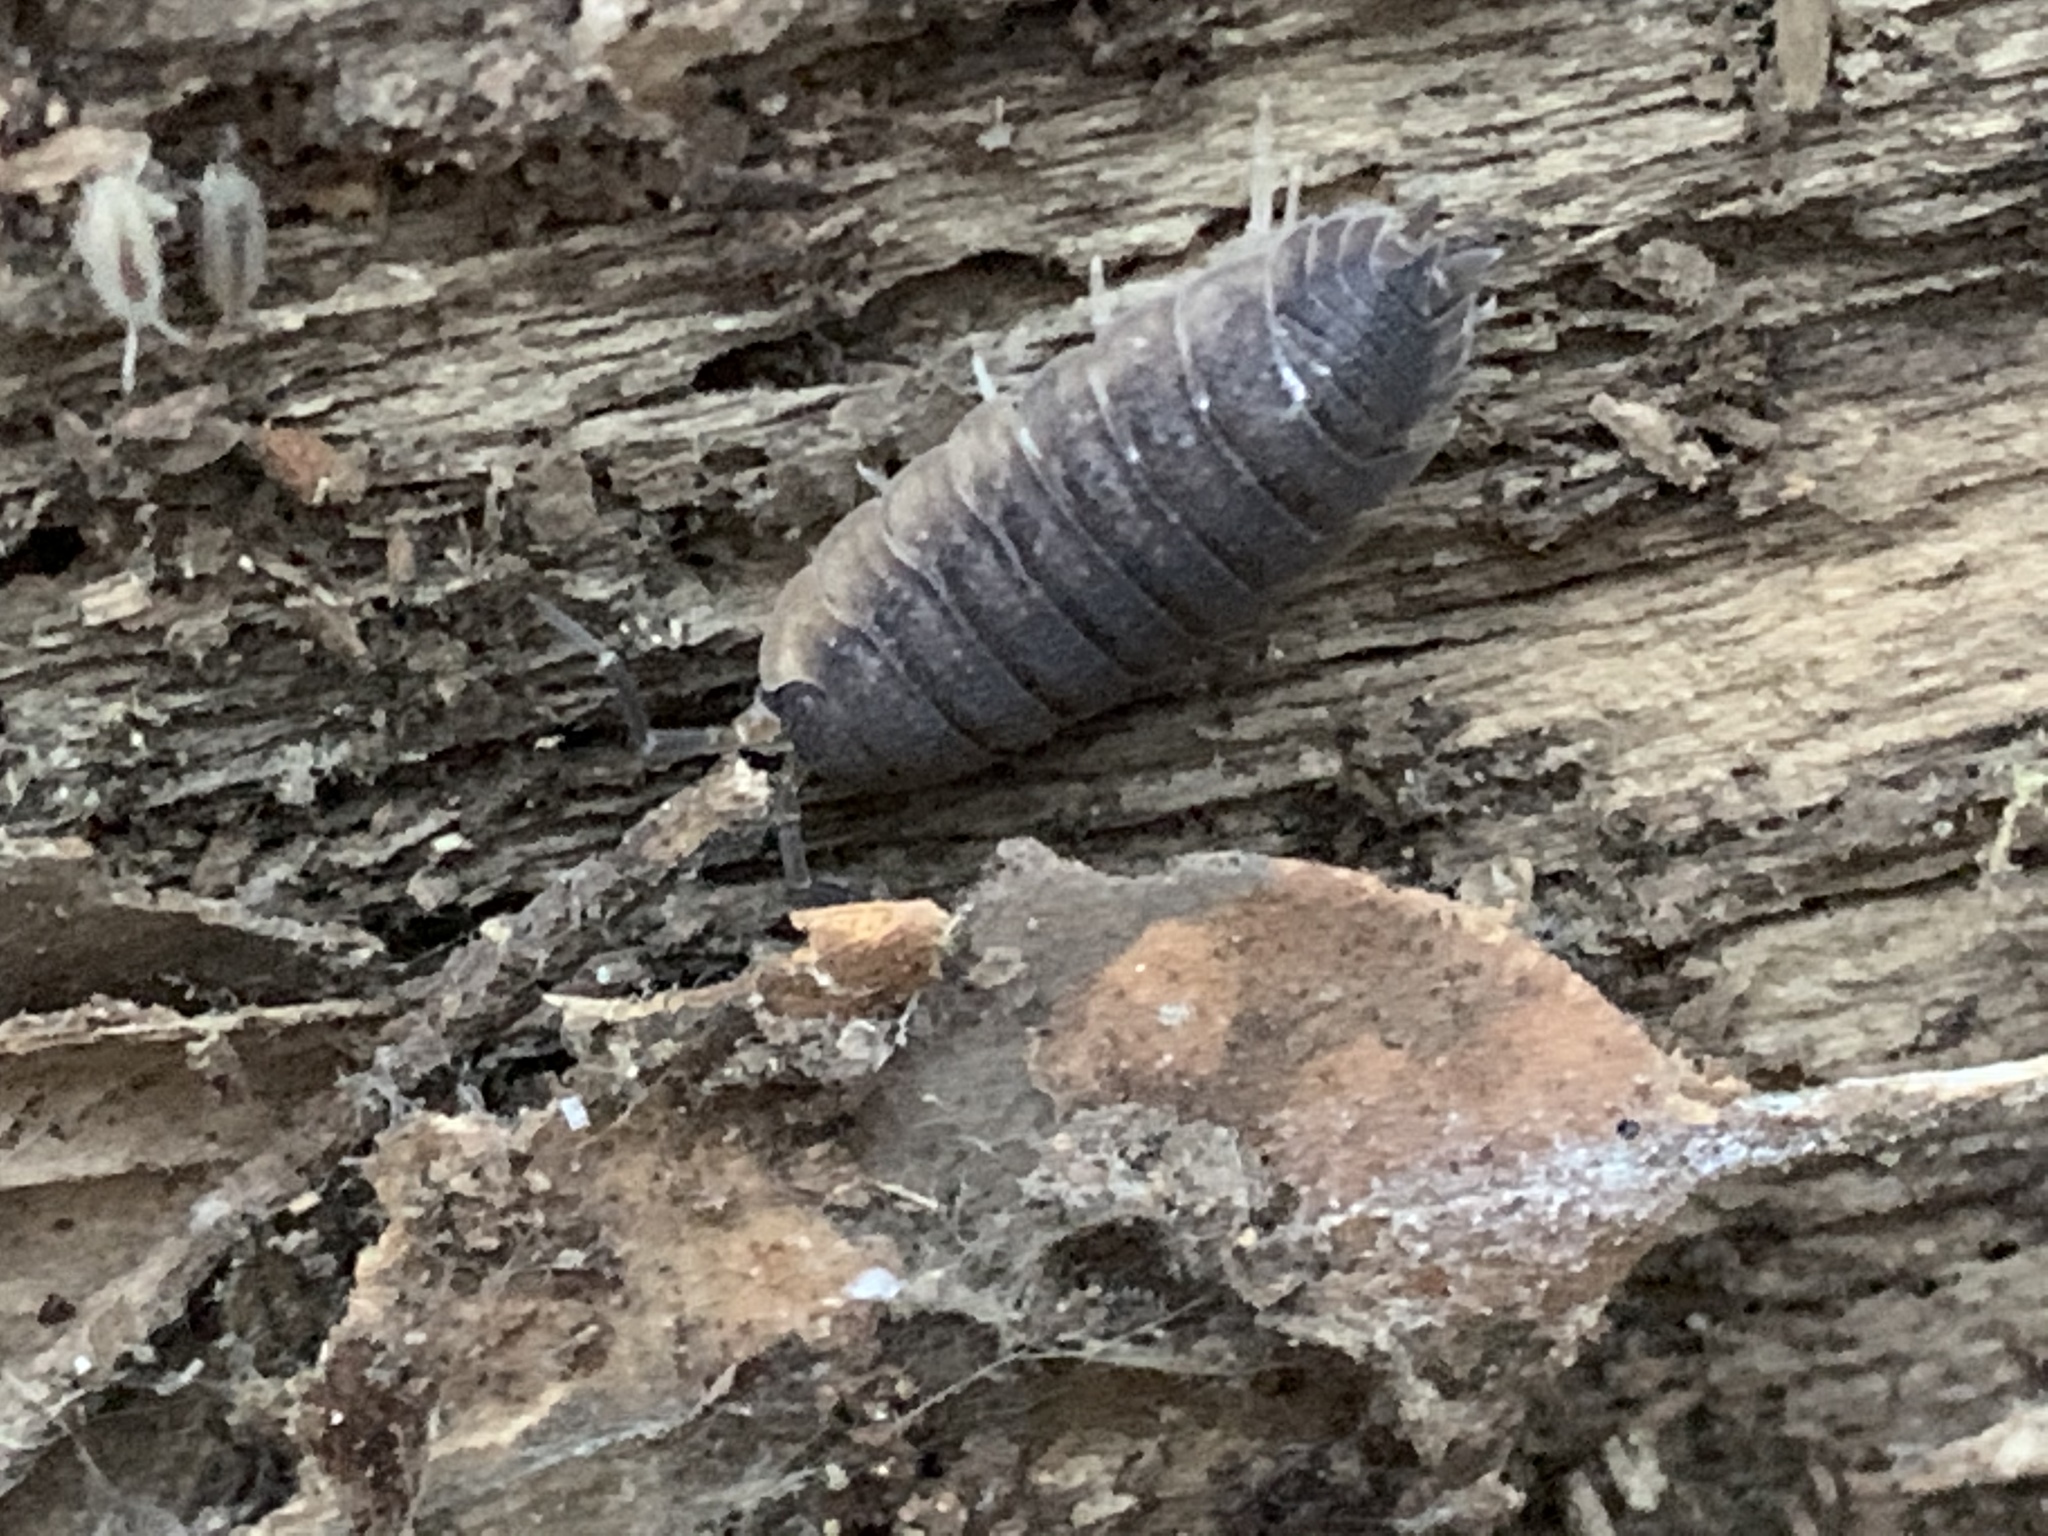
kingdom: Animalia
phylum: Arthropoda
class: Malacostraca
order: Isopoda
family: Porcellionidae
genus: Porcellio
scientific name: Porcellio scaber
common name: Common rough woodlouse
